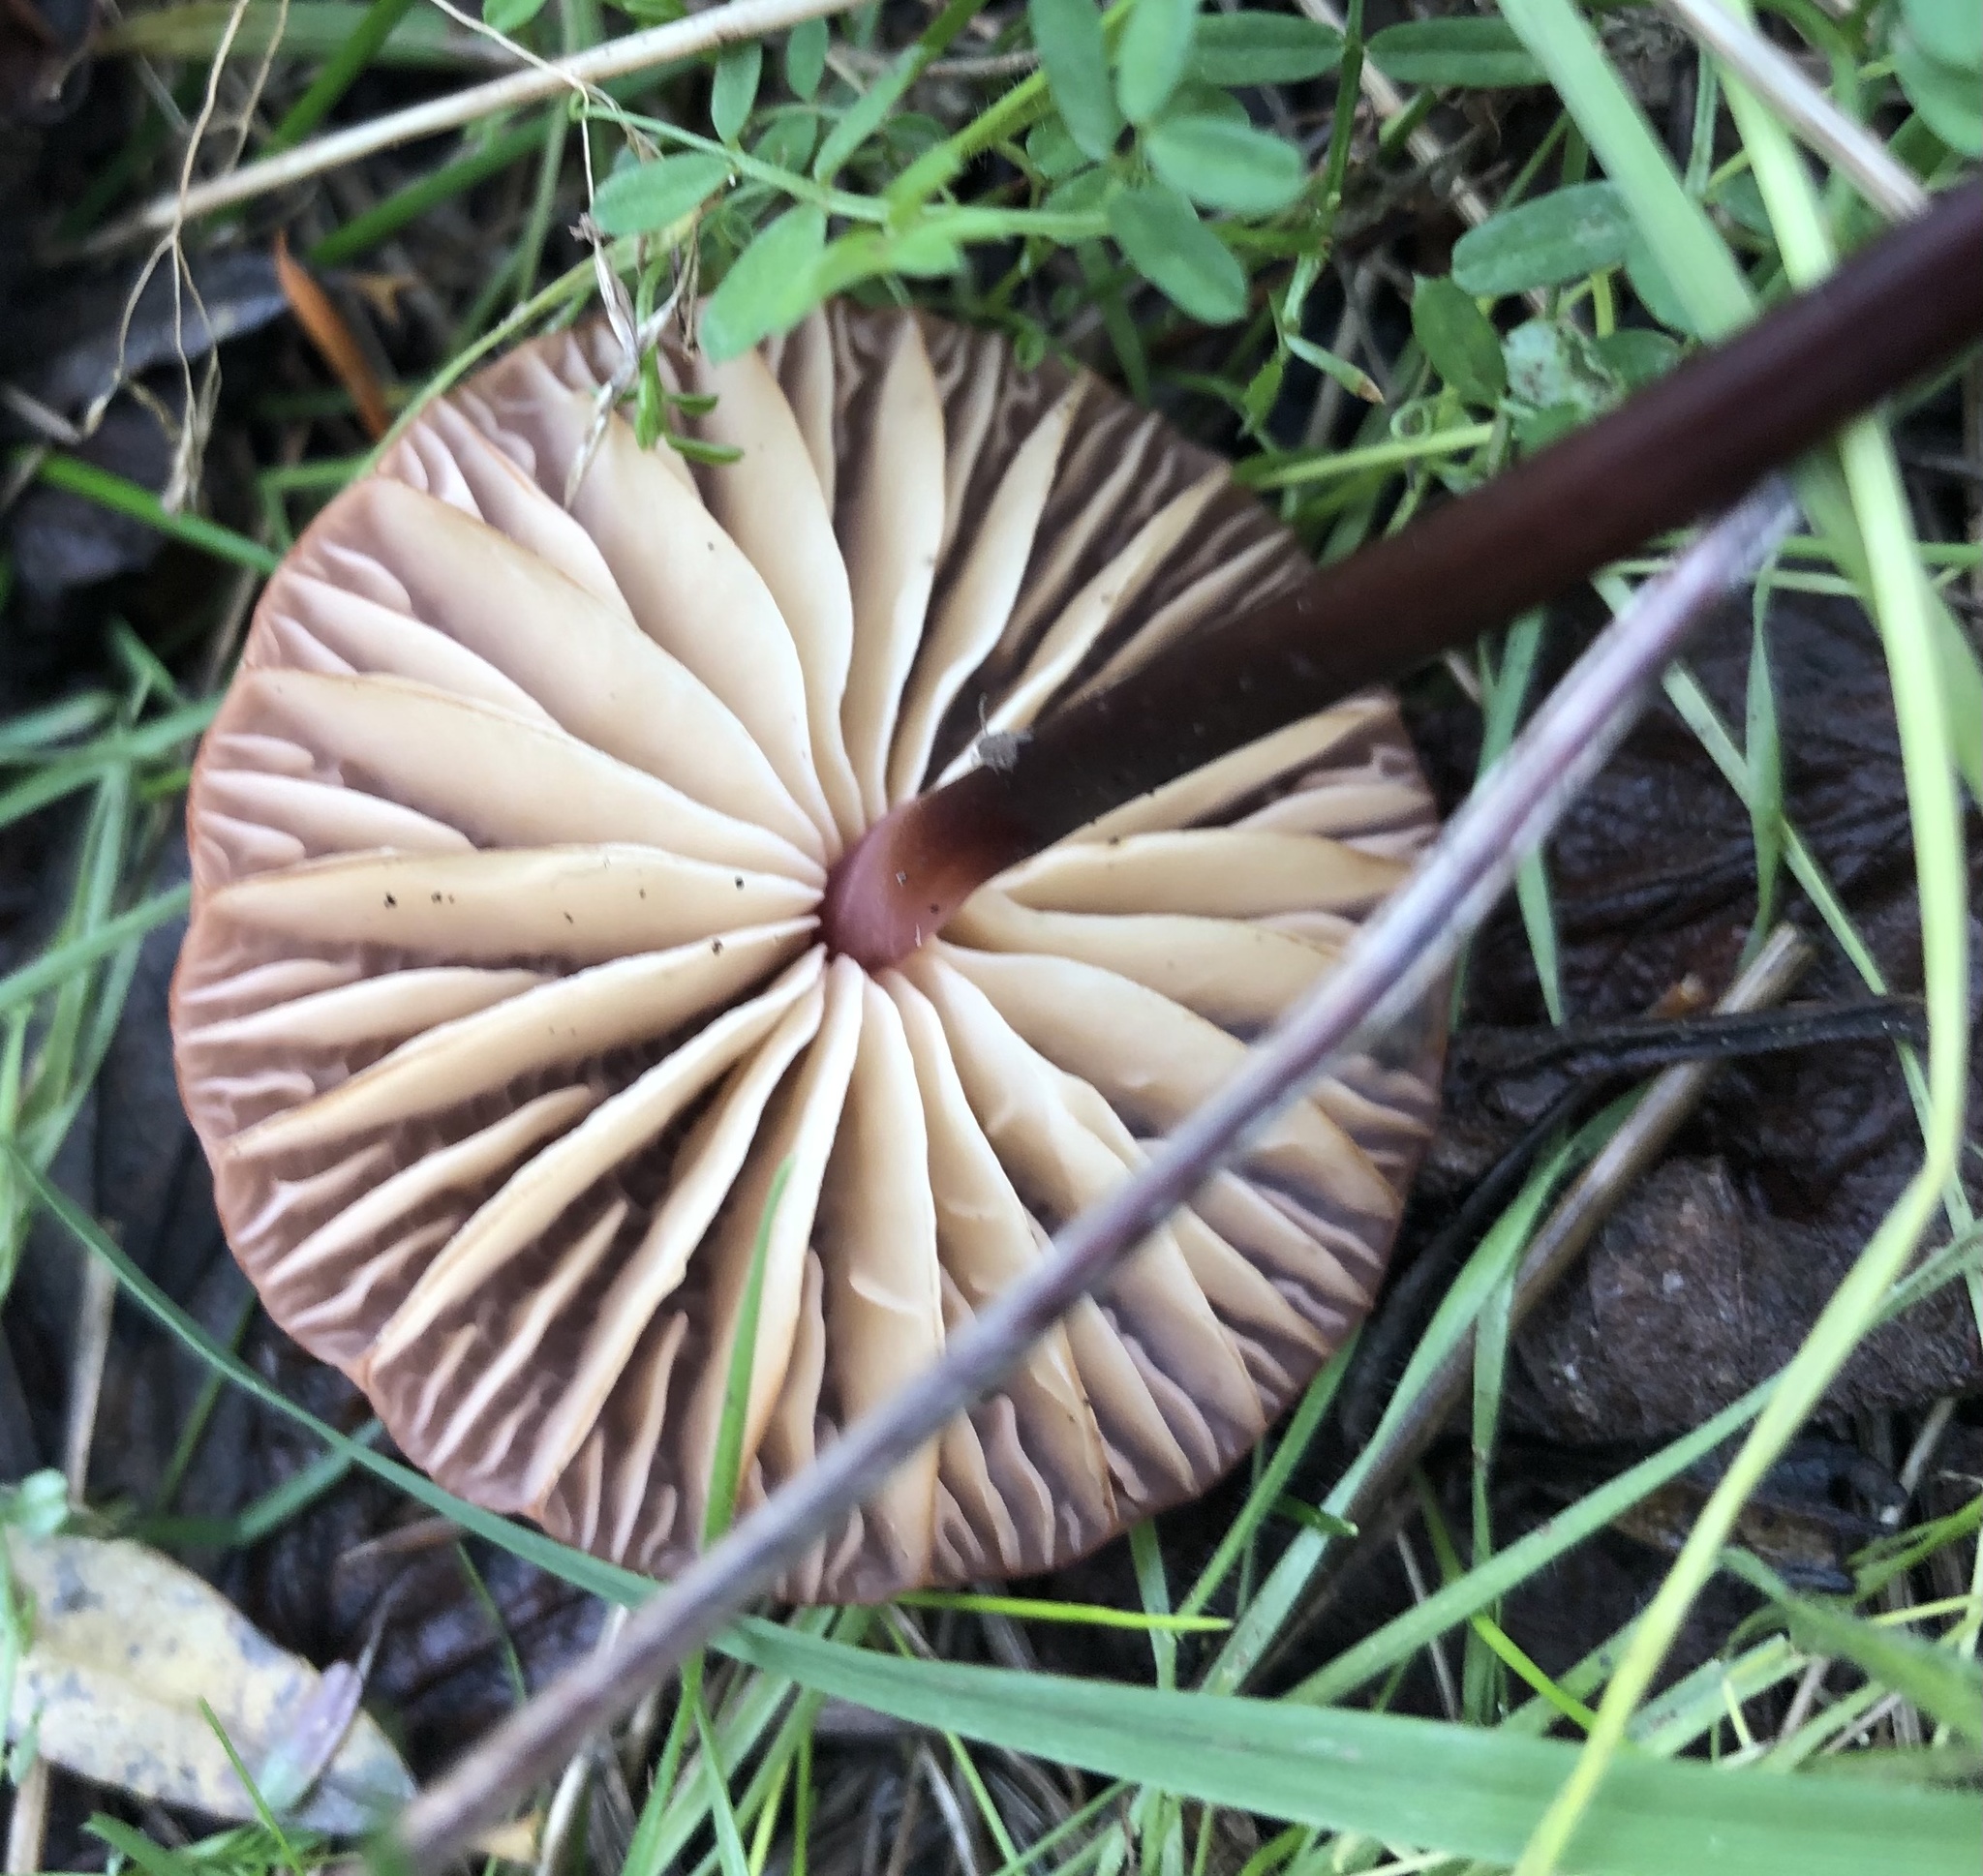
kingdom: Fungi
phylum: Basidiomycota
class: Agaricomycetes
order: Agaricales
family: Marasmiaceae
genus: Marasmius
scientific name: Marasmius plicatulus
